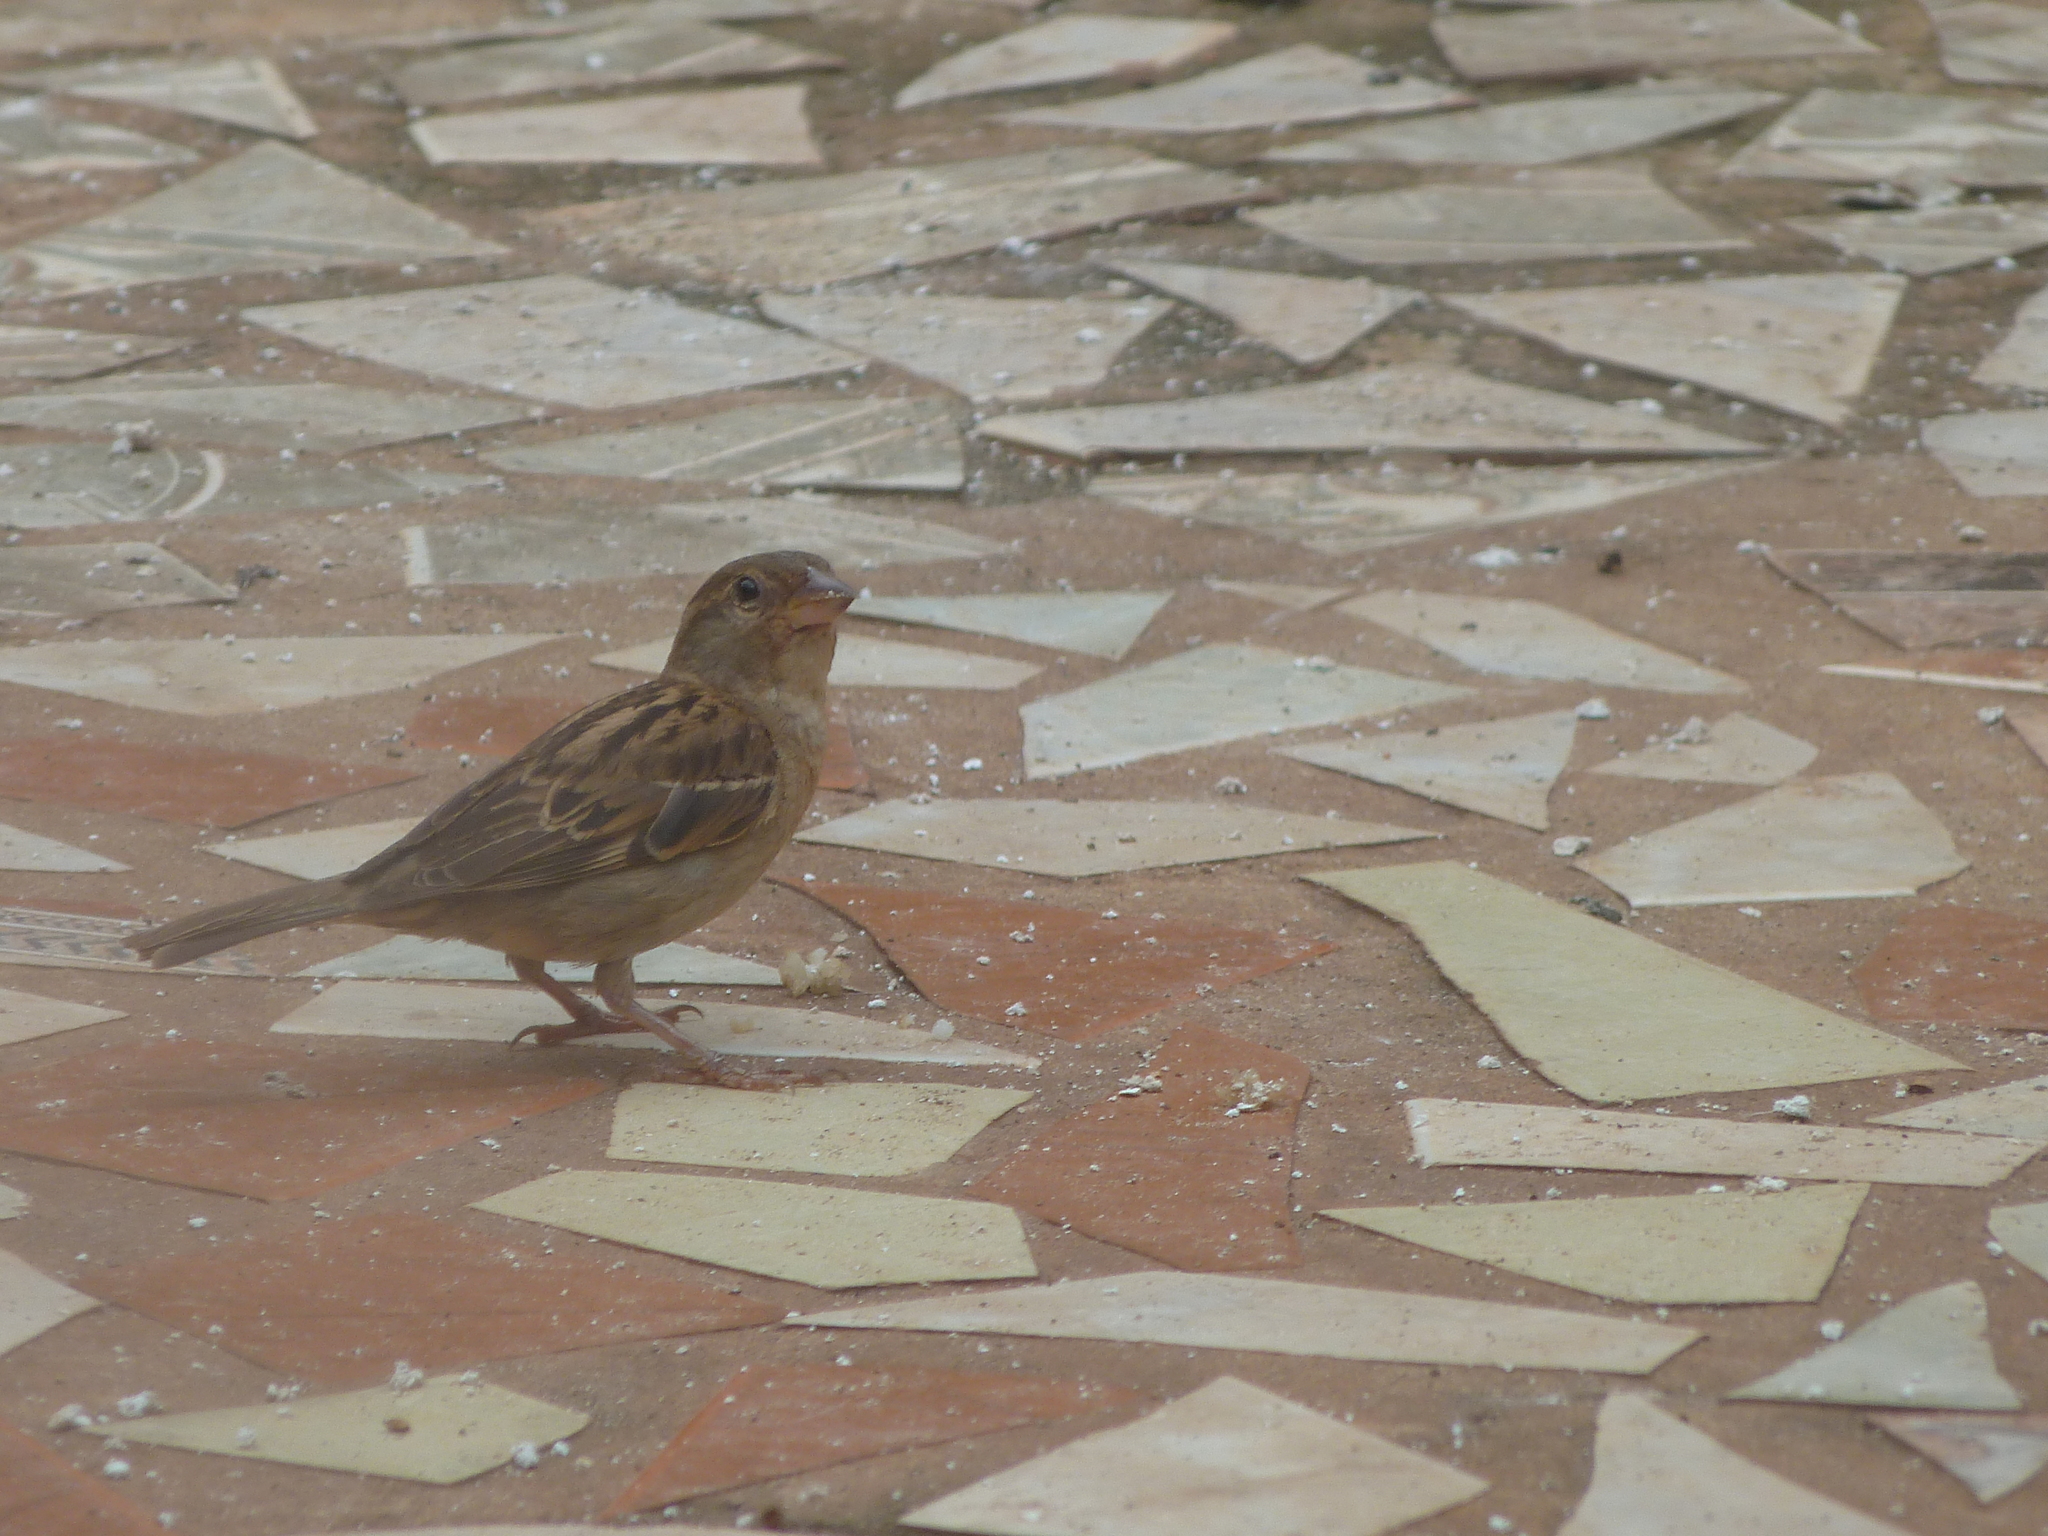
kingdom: Animalia
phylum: Chordata
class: Aves
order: Passeriformes
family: Passeridae
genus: Passer
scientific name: Passer domesticus
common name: House sparrow
